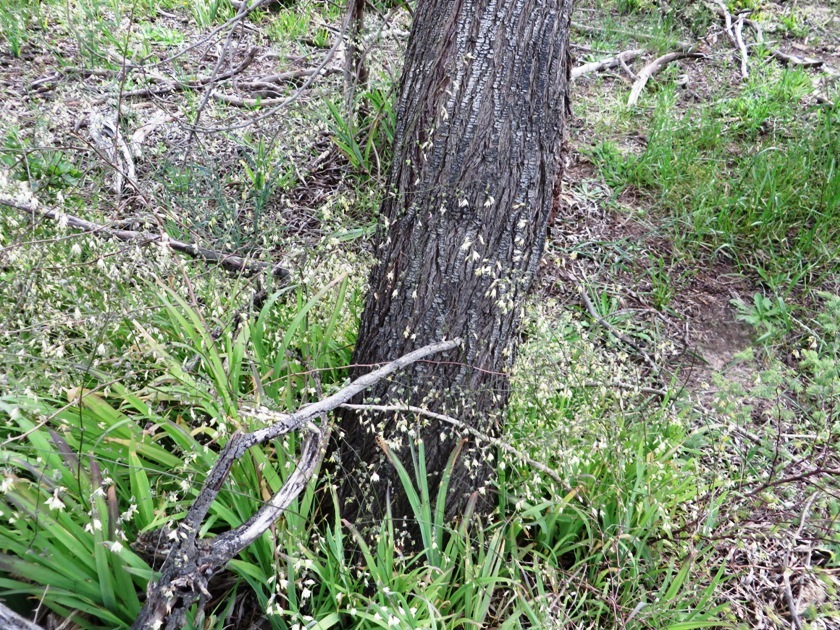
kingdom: Plantae
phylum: Tracheophyta
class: Liliopsida
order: Asparagales
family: Iridaceae
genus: Melasphaerula
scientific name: Melasphaerula graminea
